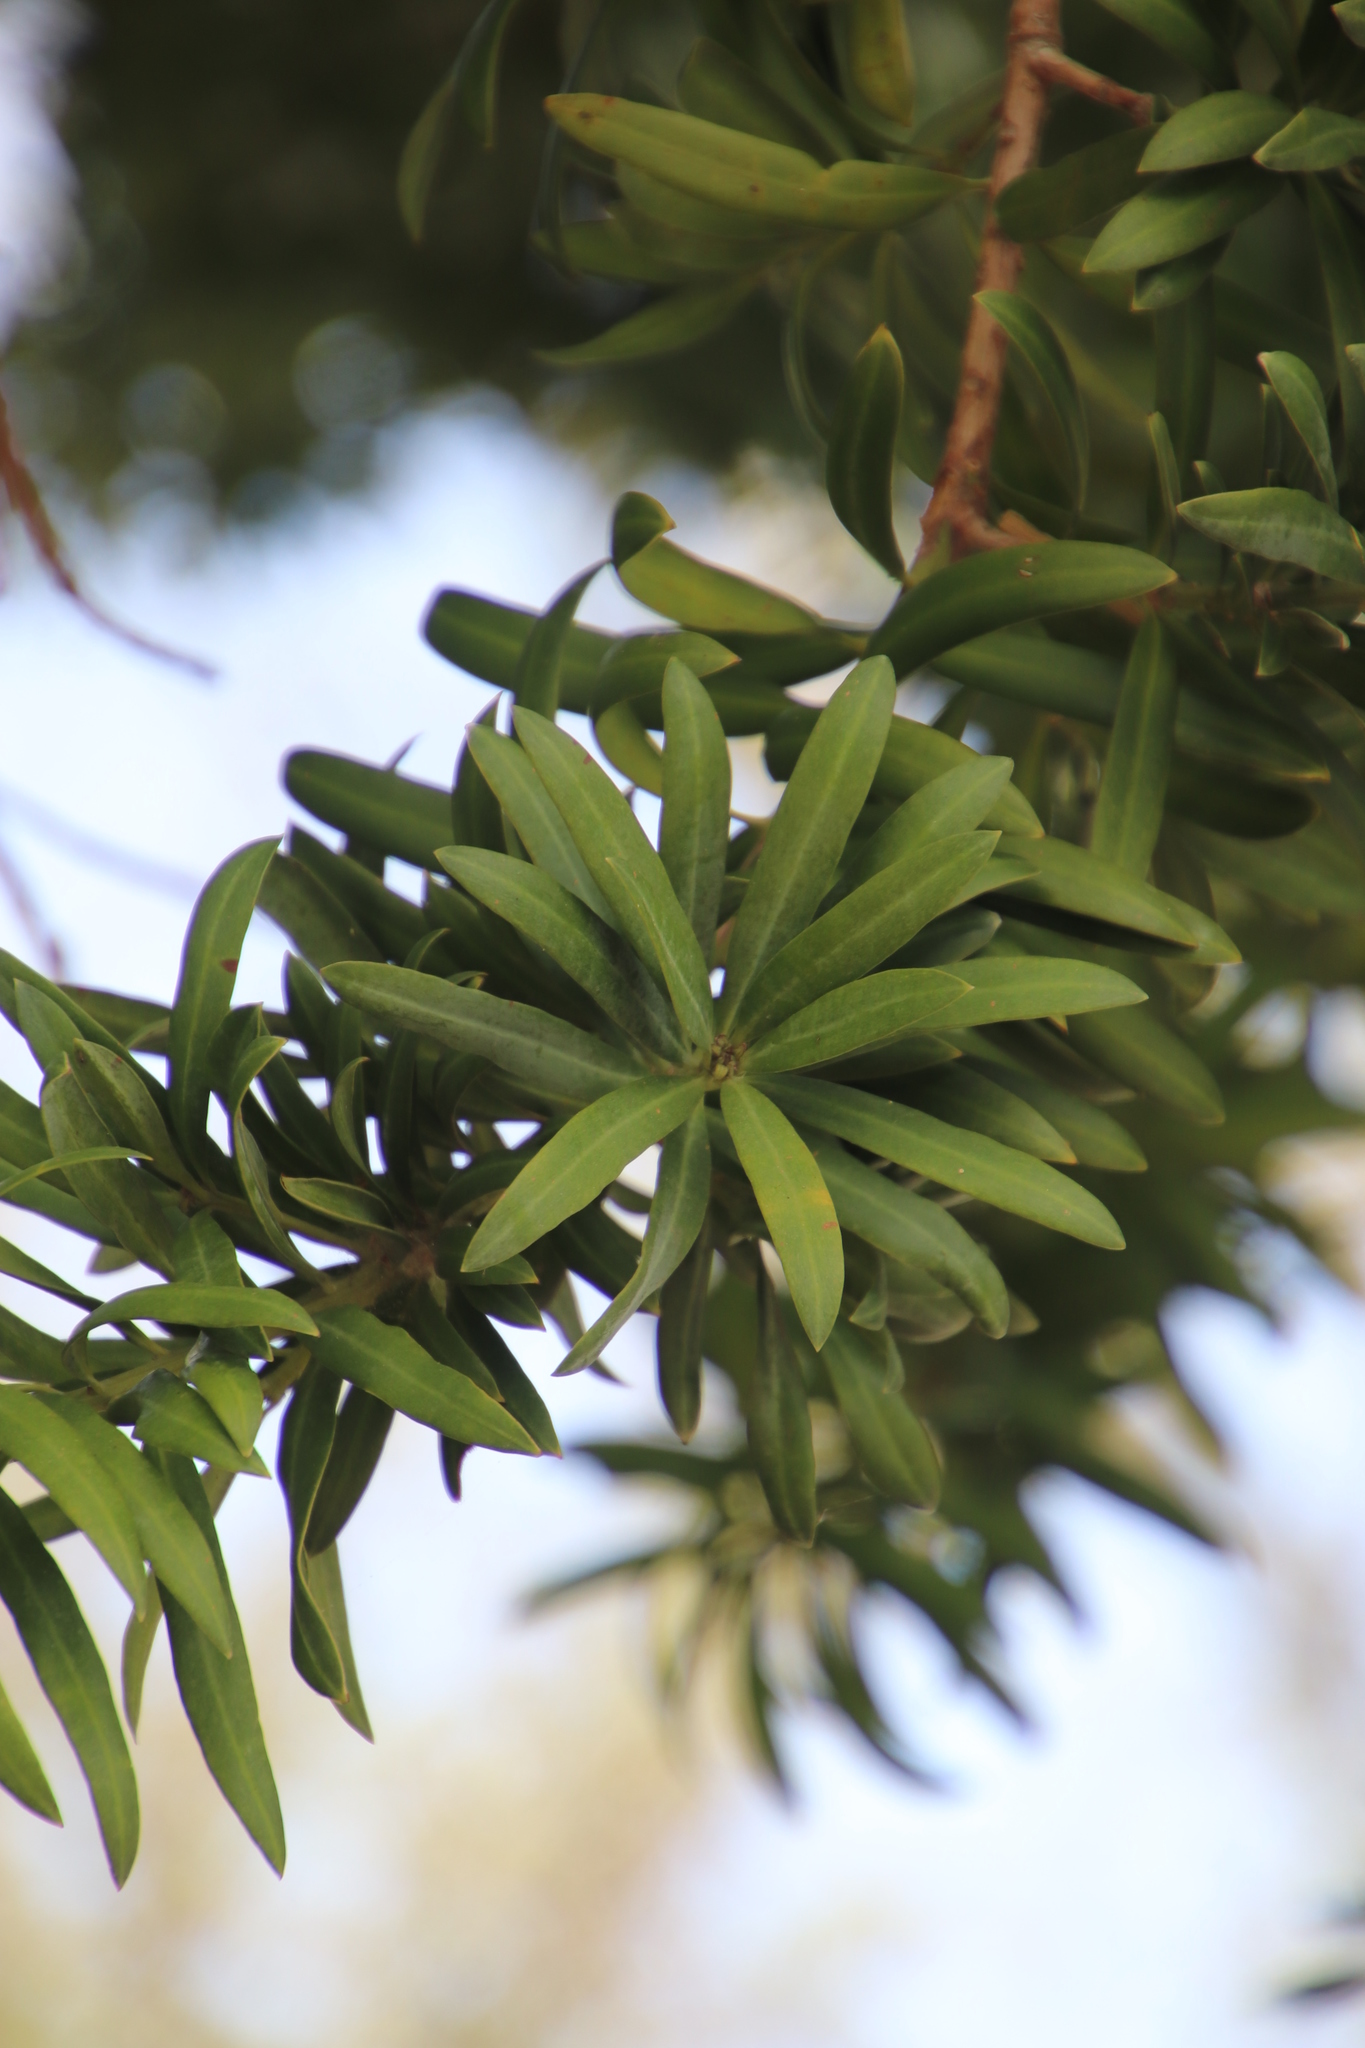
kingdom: Plantae
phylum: Tracheophyta
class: Pinopsida
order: Pinales
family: Podocarpaceae
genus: Podocarpus
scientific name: Podocarpus latifolius
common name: True yellowwood
